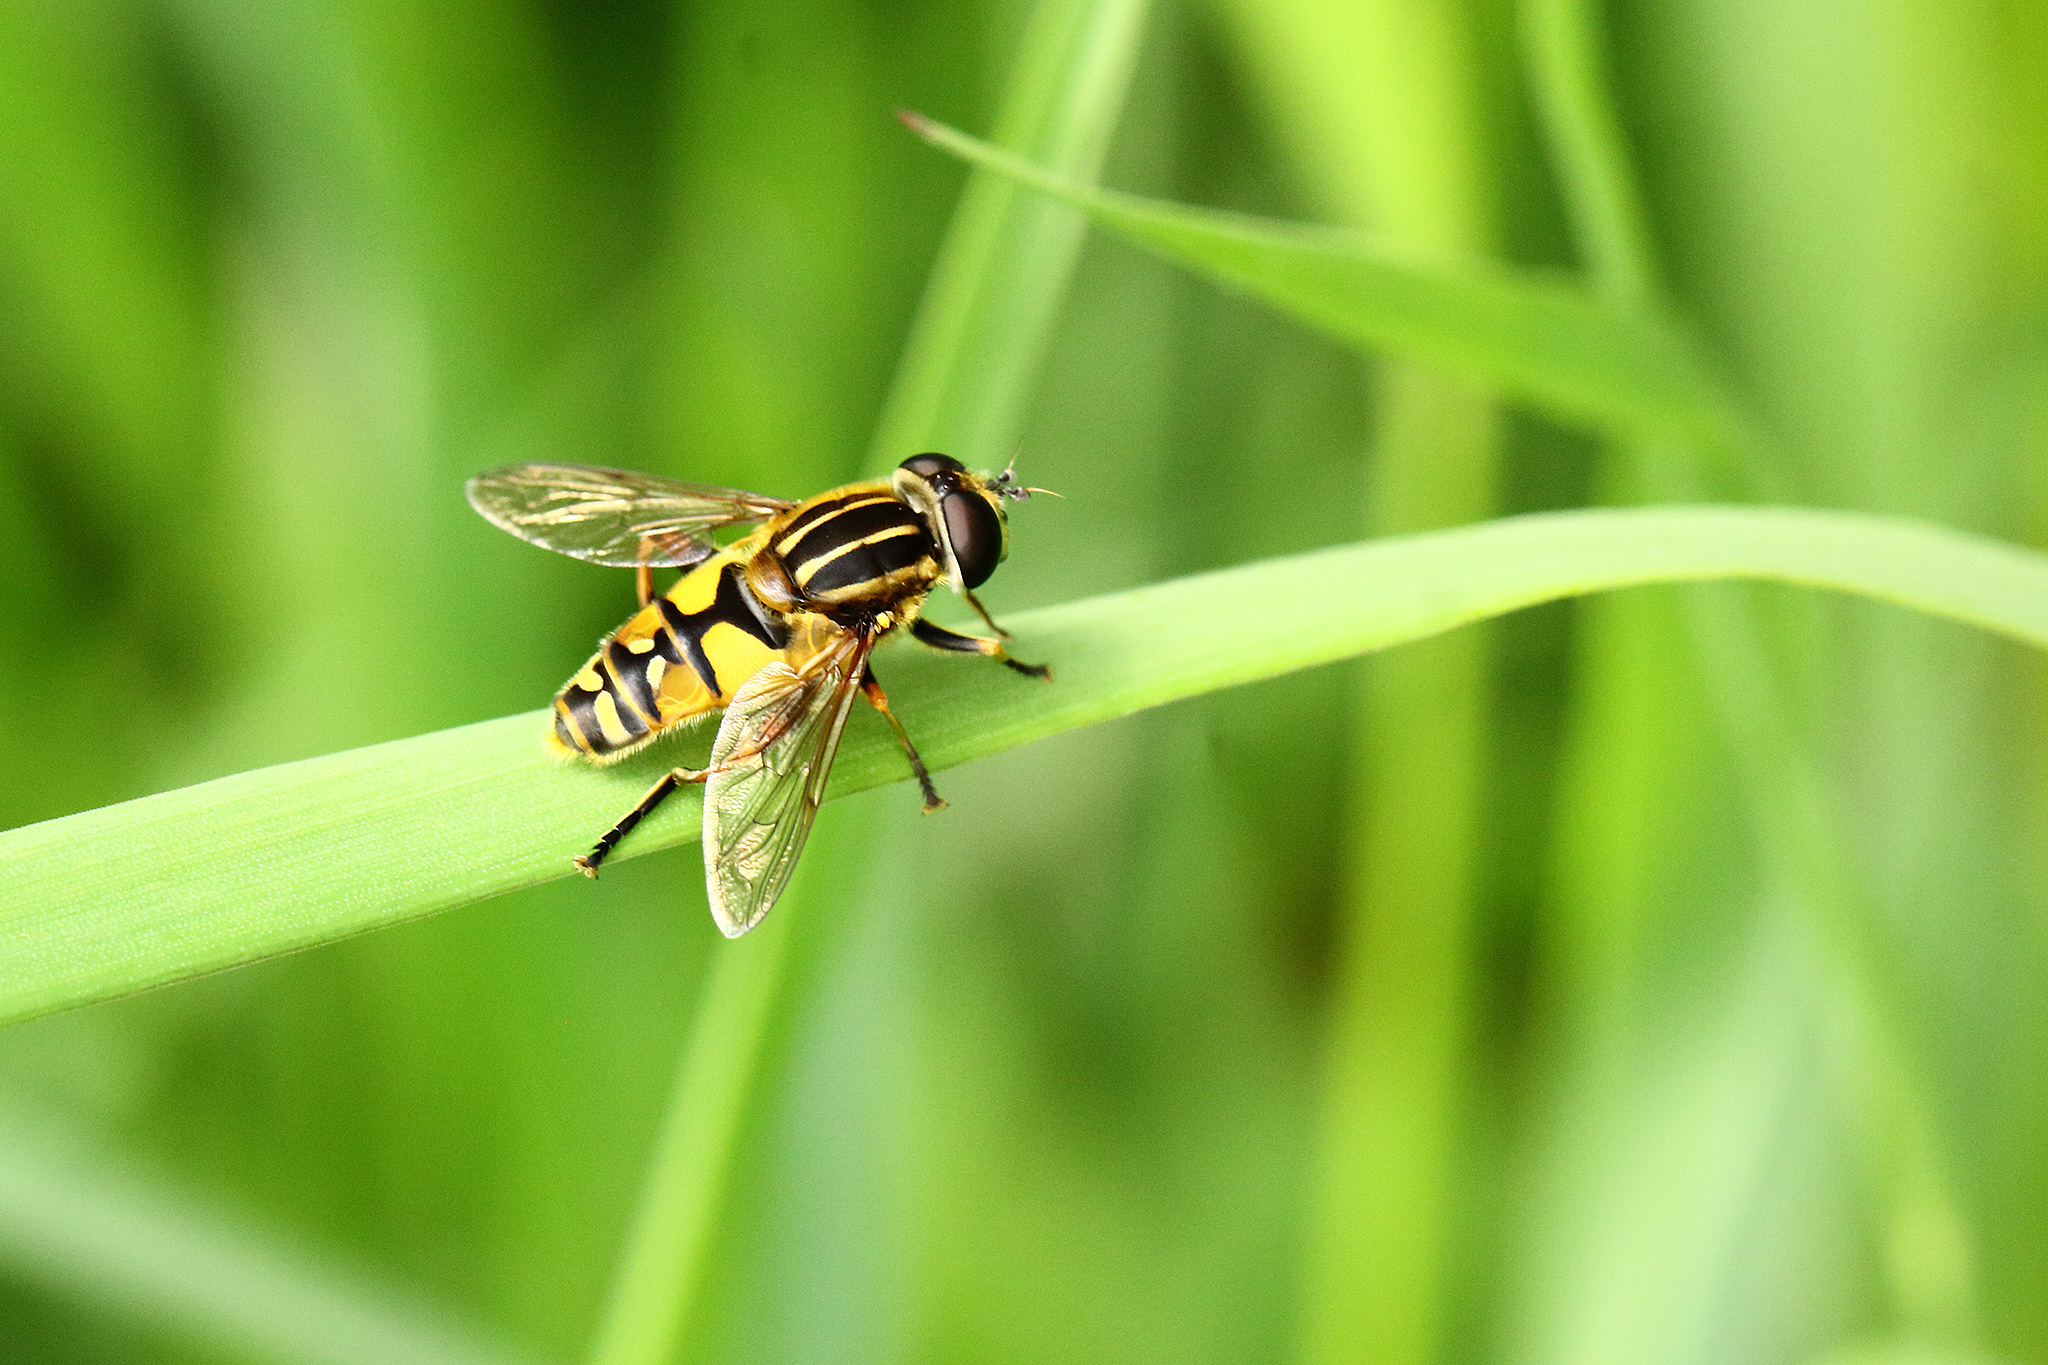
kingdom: Animalia
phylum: Arthropoda
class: Insecta
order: Diptera
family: Syrphidae
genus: Helophilus
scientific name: Helophilus pendulus
